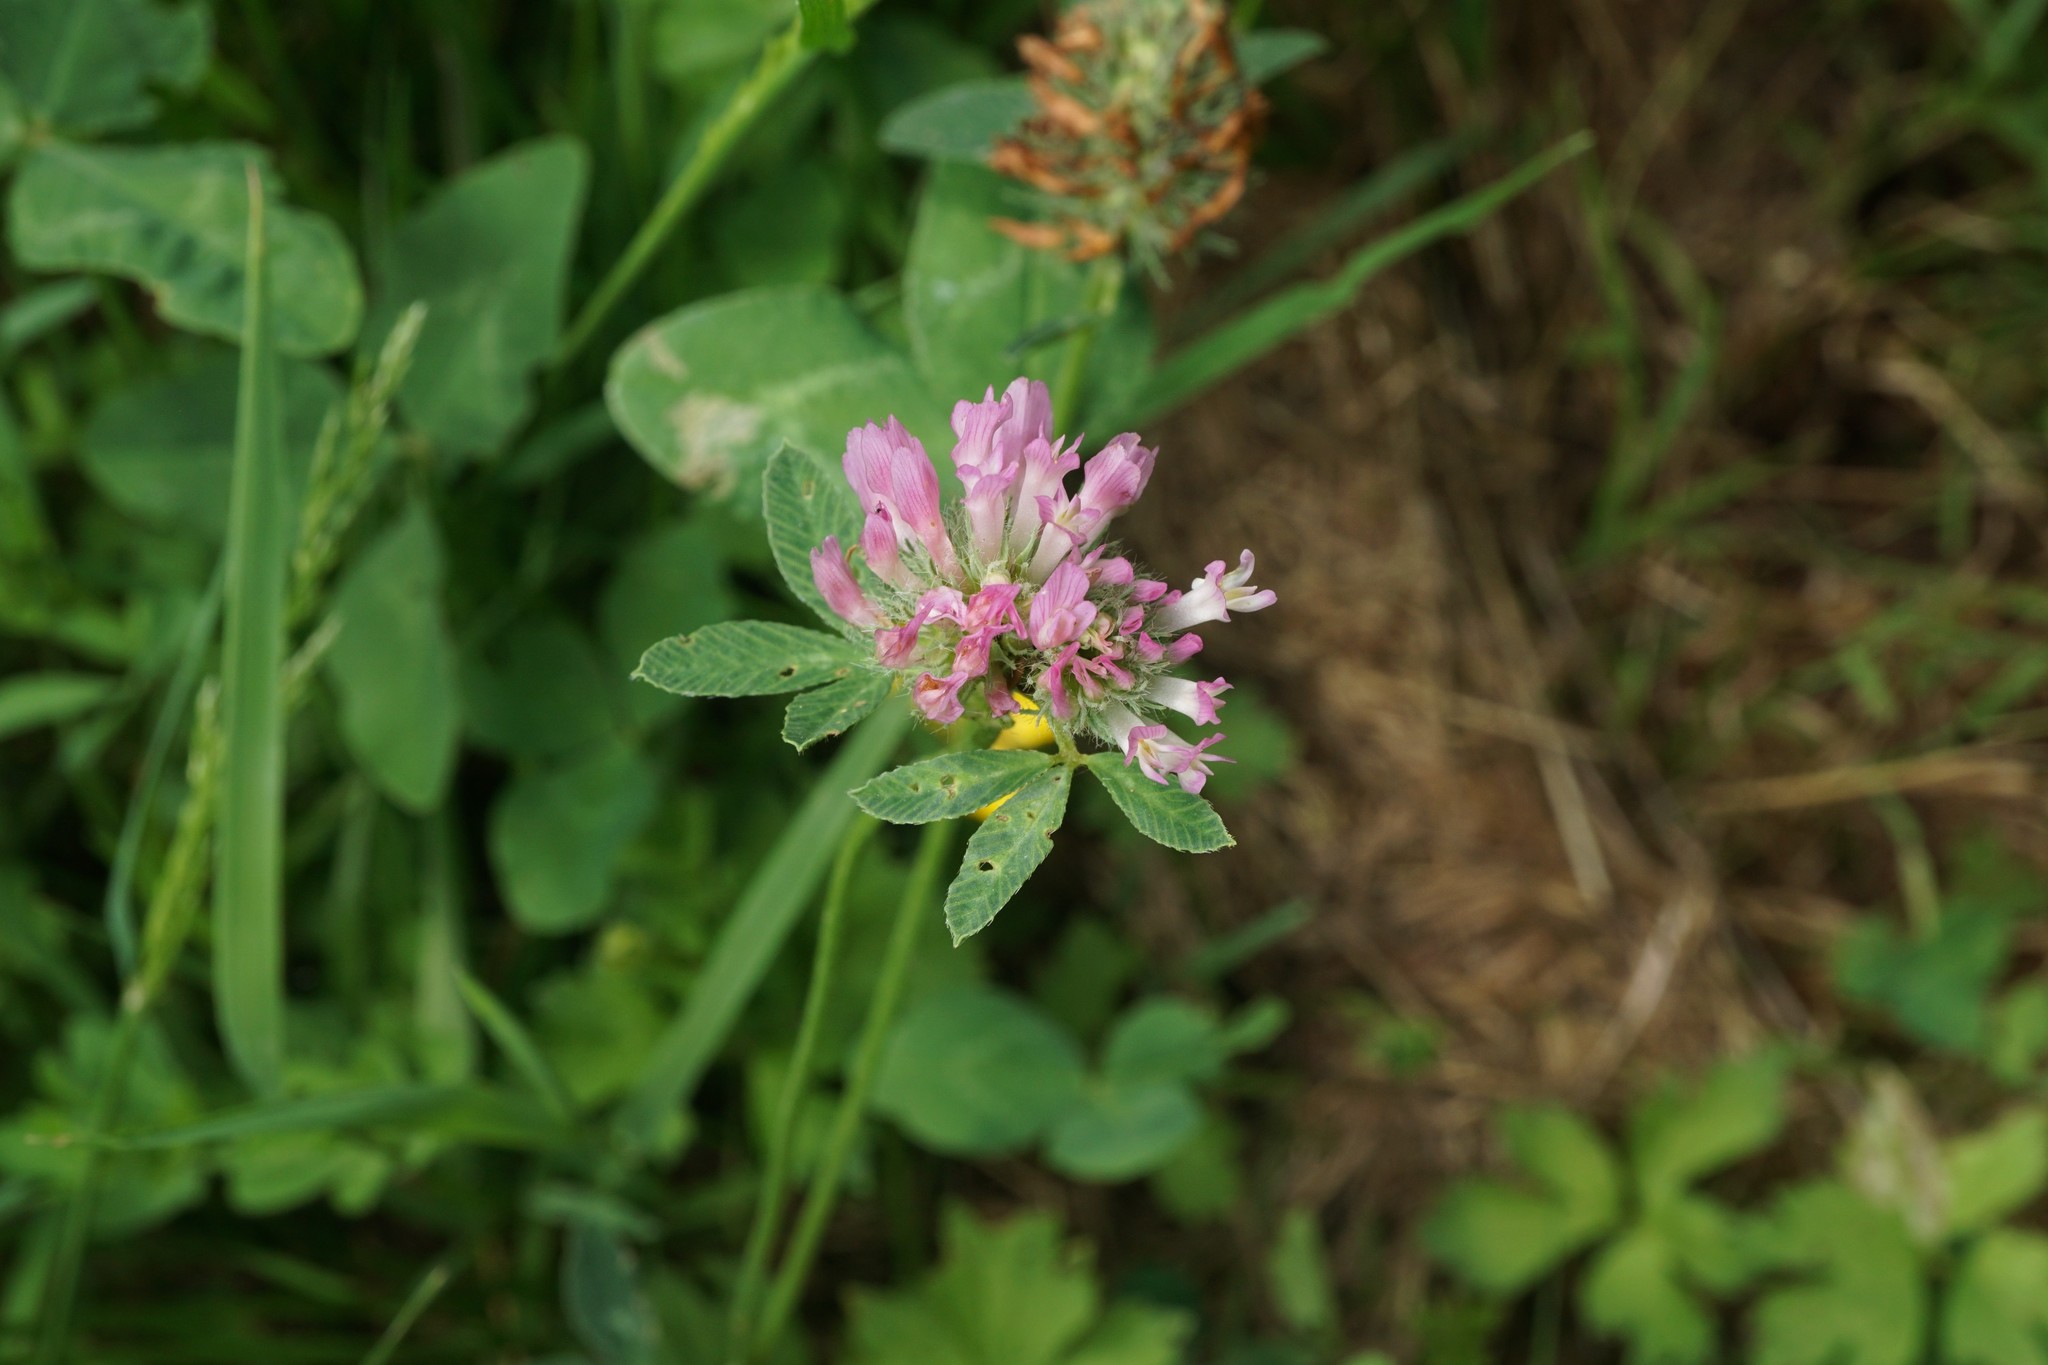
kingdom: Plantae
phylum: Tracheophyta
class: Magnoliopsida
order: Fabales
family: Fabaceae
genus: Trifolium
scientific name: Trifolium pratense
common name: Red clover
